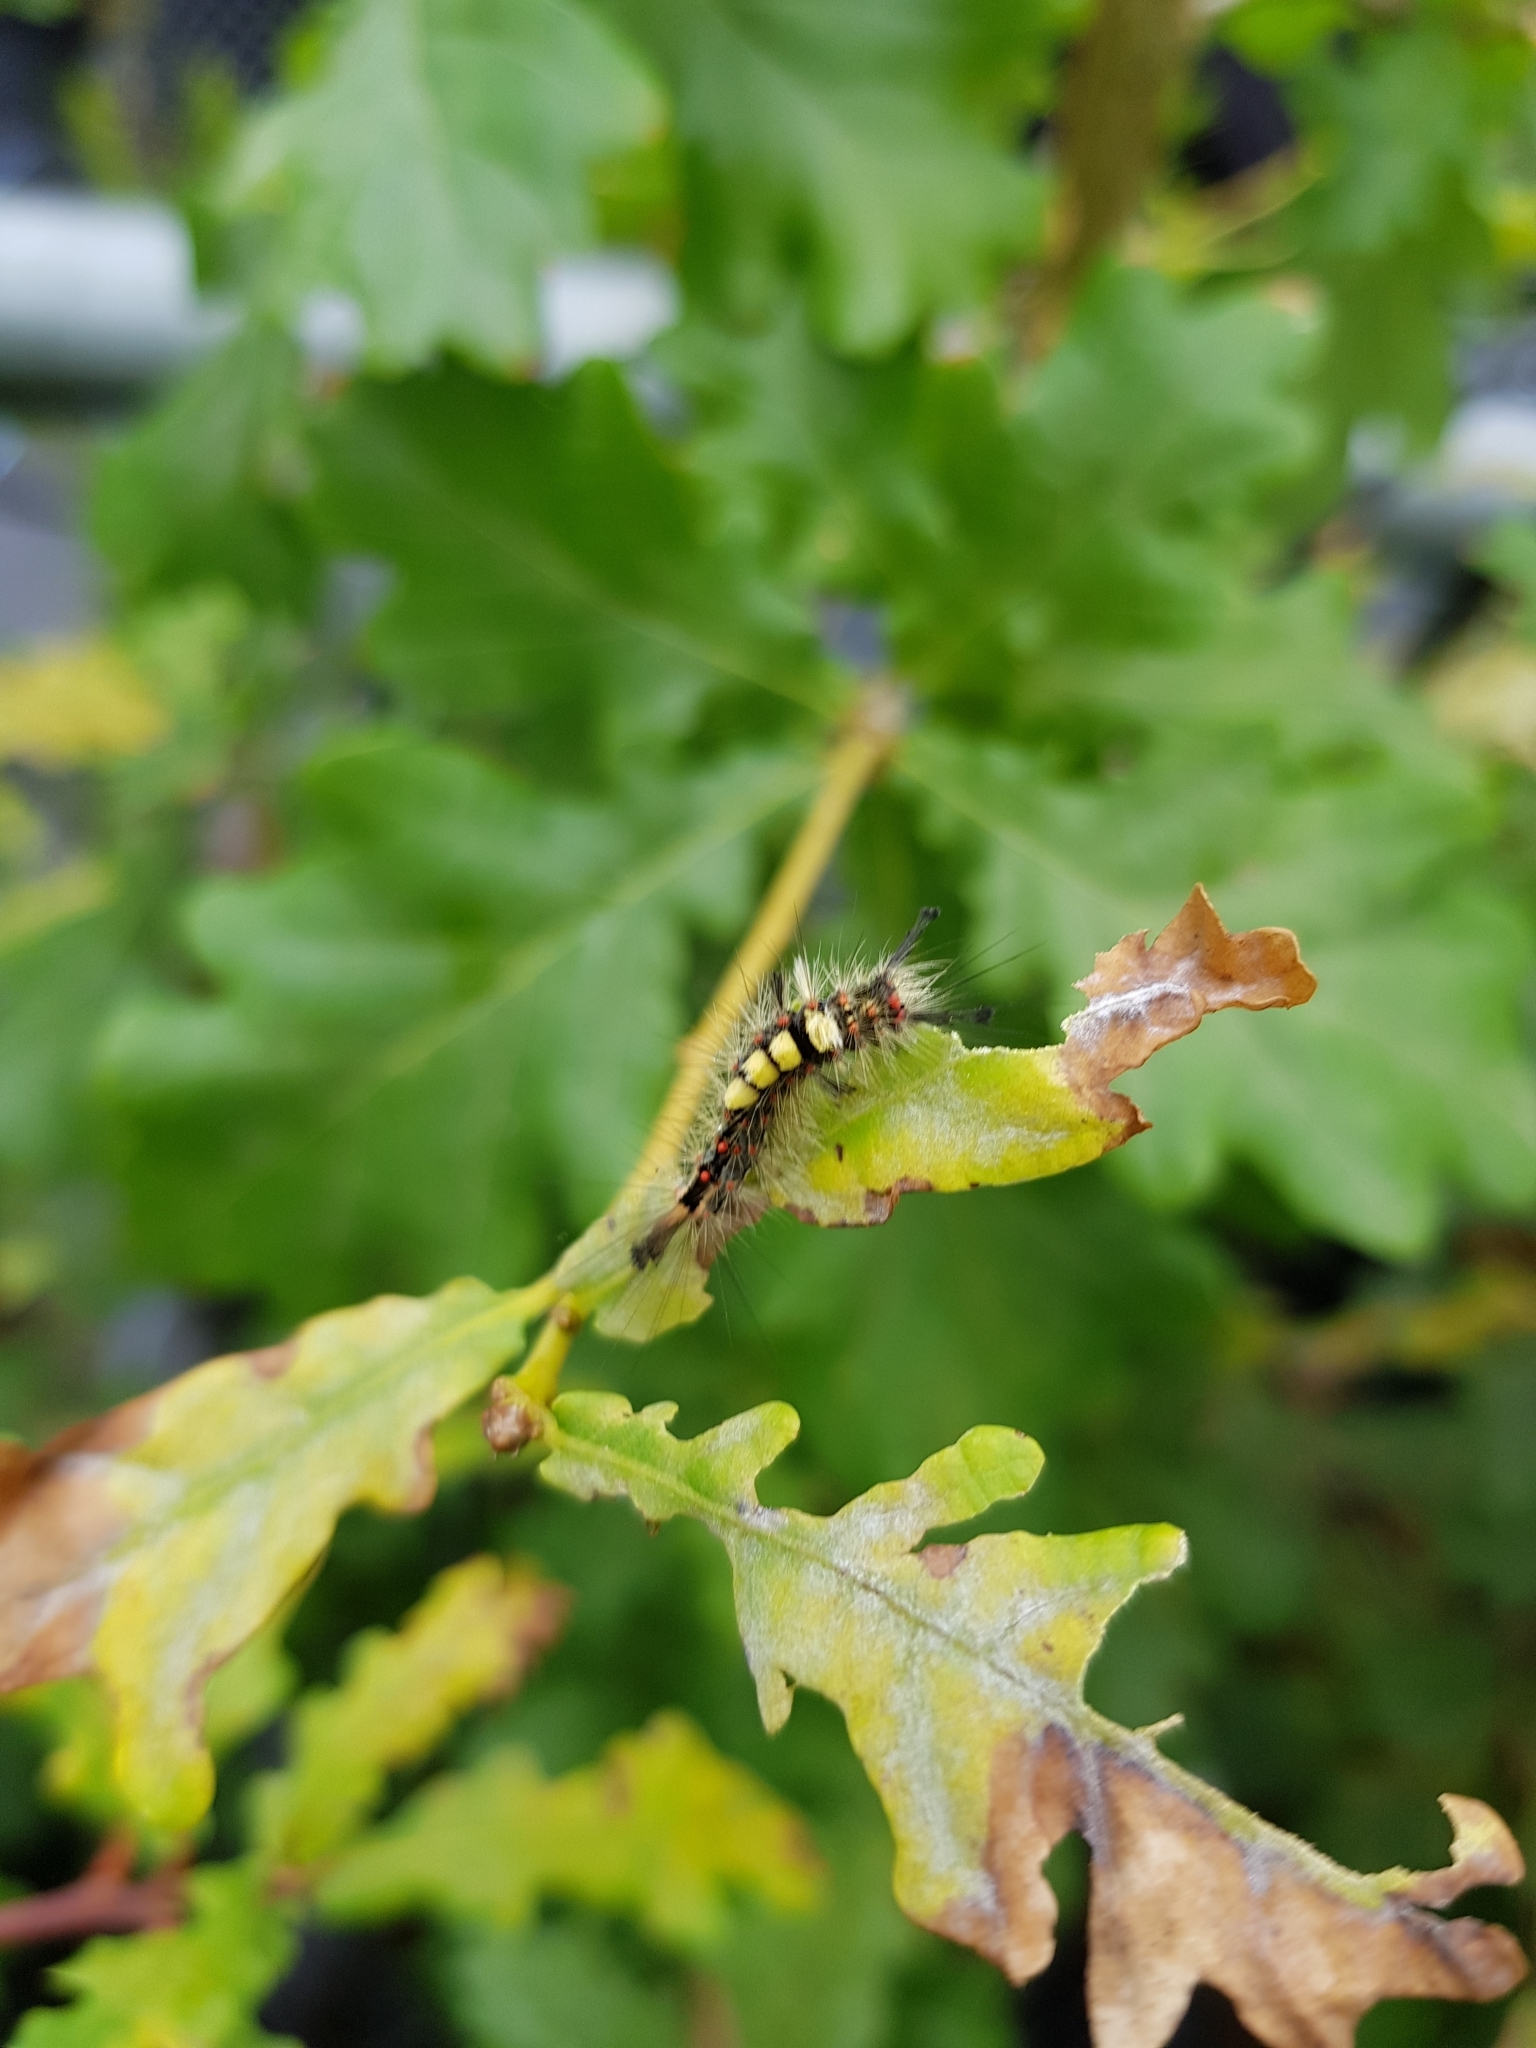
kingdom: Animalia
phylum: Arthropoda
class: Insecta
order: Lepidoptera
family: Erebidae
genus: Orgyia
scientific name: Orgyia antiqua
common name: Vapourer
